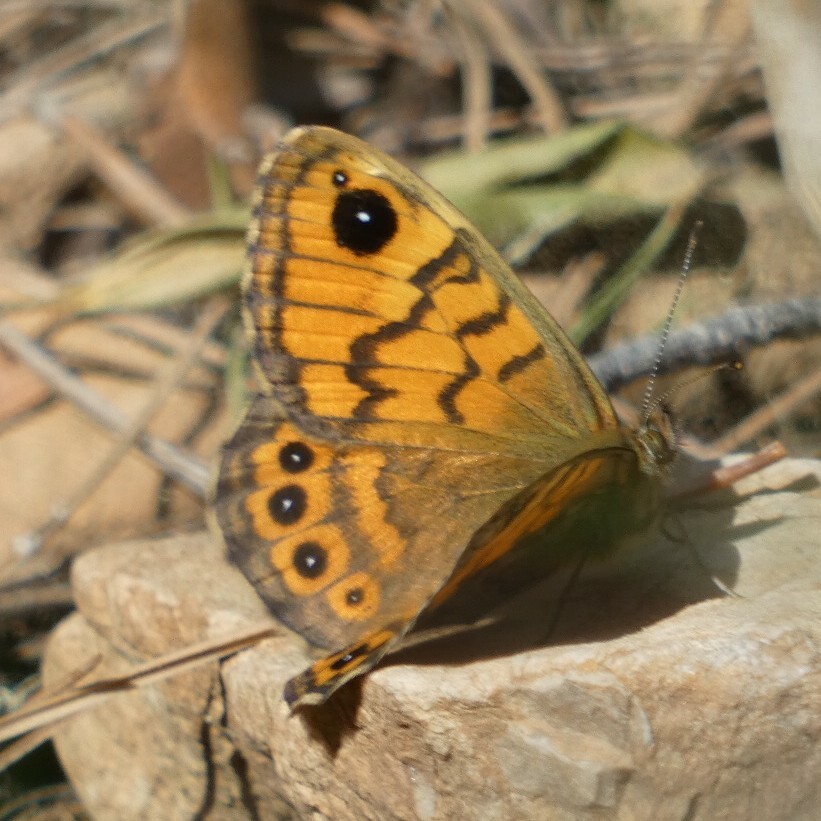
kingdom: Animalia
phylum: Arthropoda
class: Insecta
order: Lepidoptera
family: Nymphalidae
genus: Pararge
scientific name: Pararge Lasiommata megera
